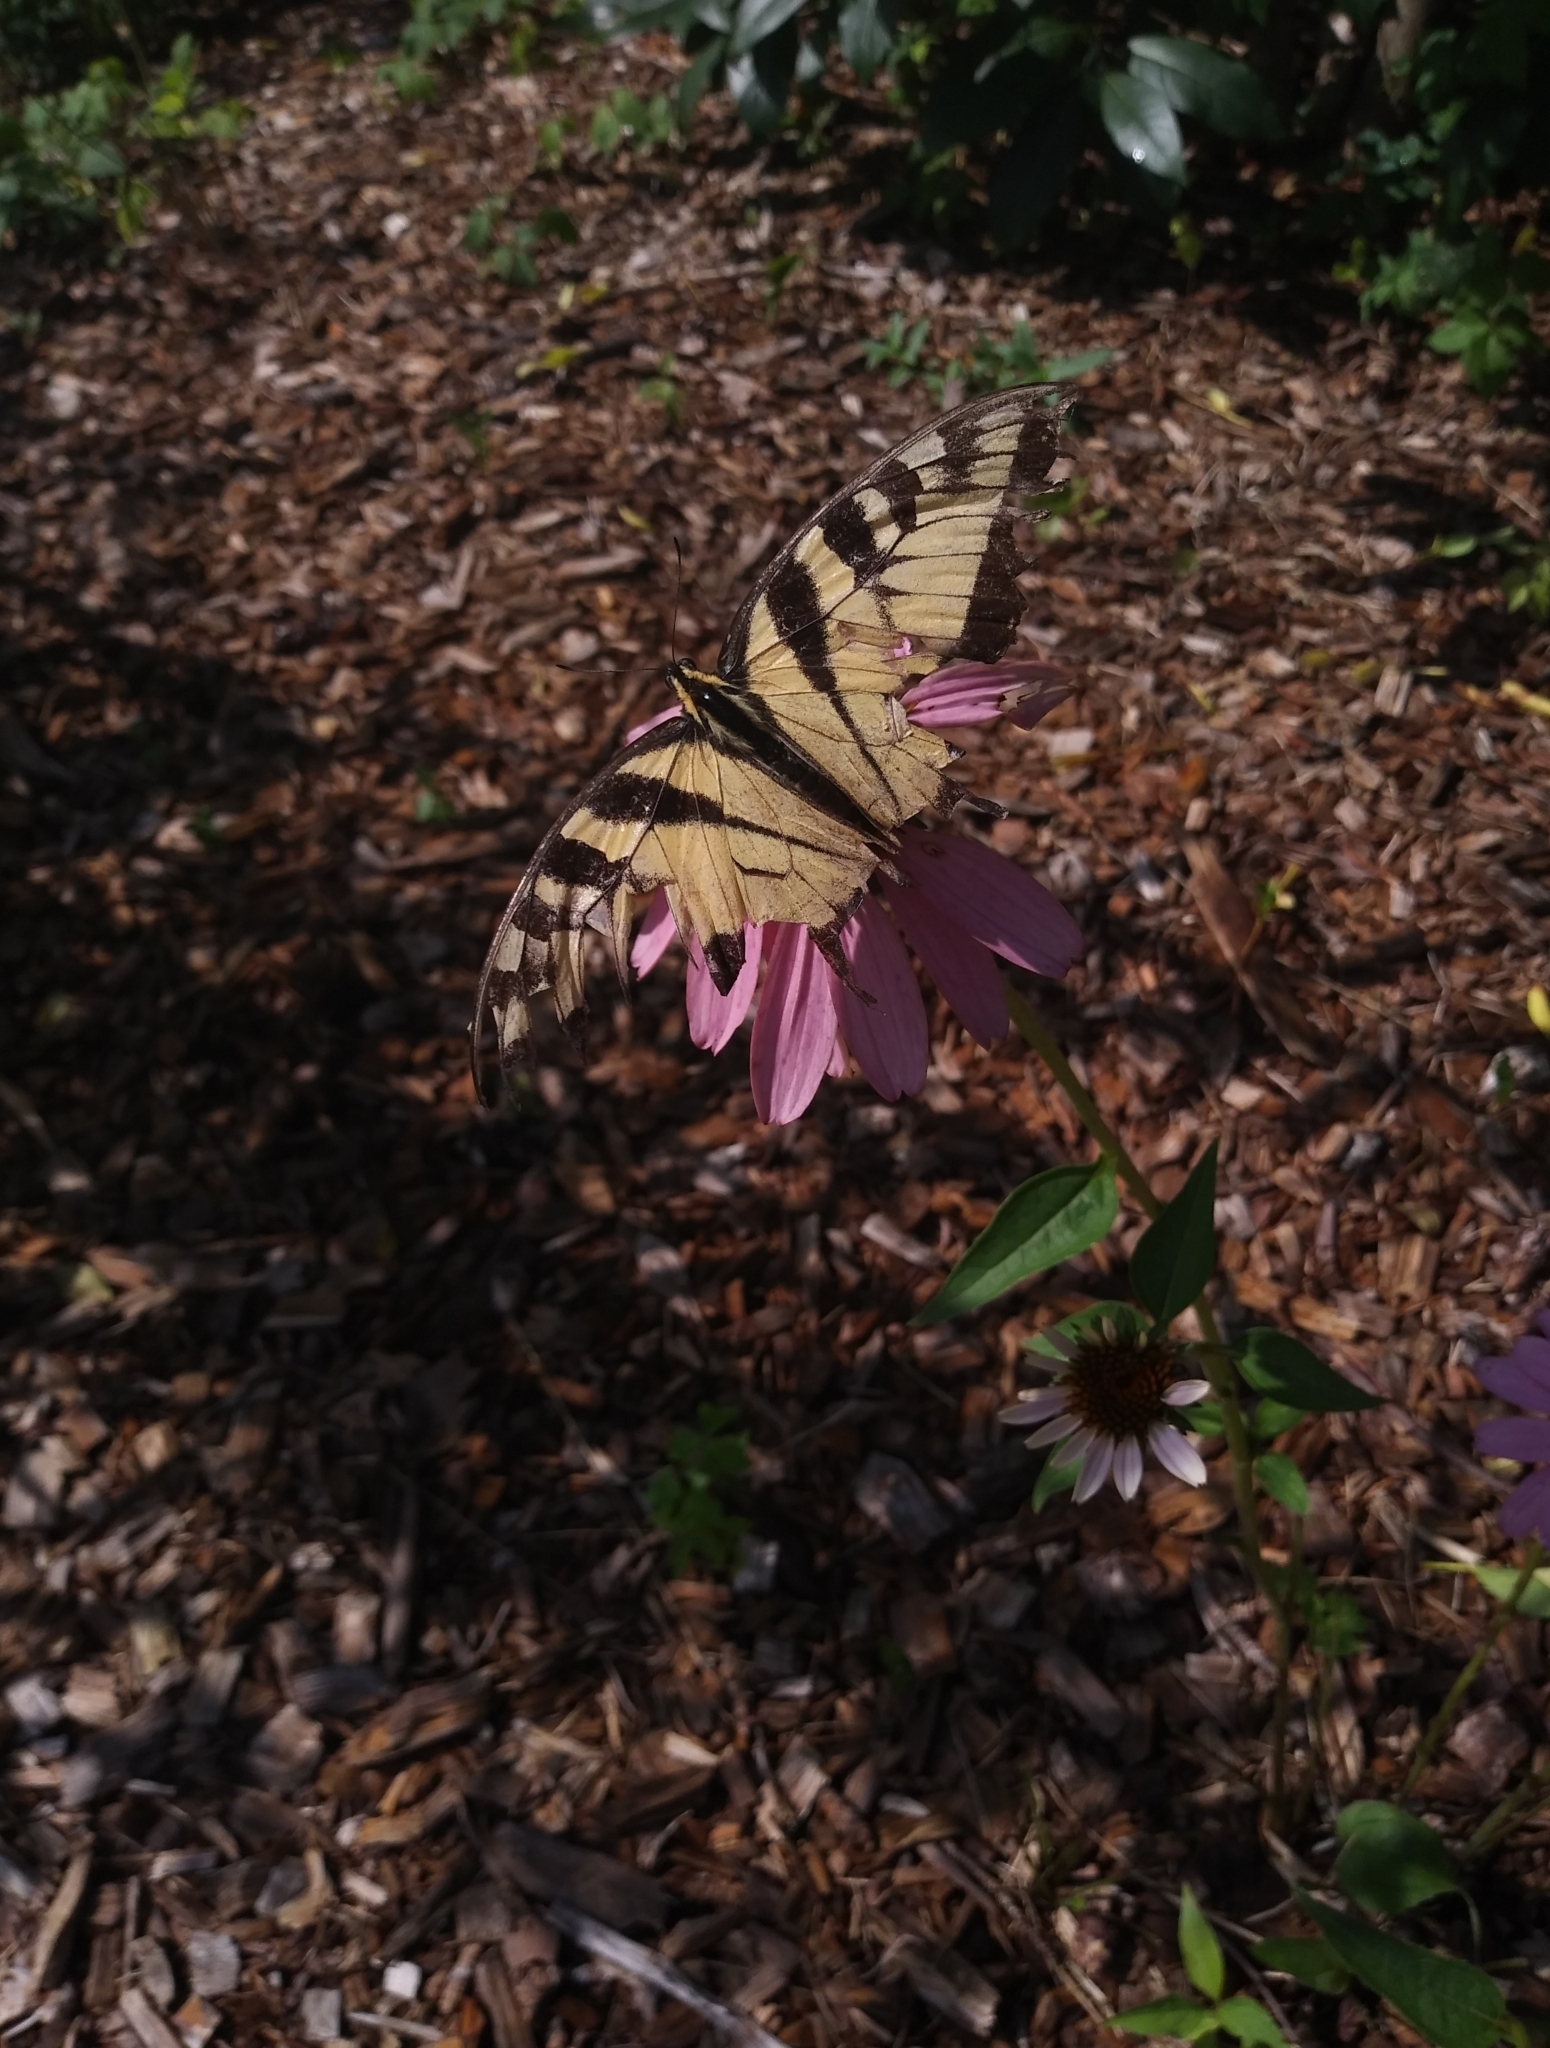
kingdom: Animalia
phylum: Arthropoda
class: Insecta
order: Lepidoptera
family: Papilionidae
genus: Papilio
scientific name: Papilio glaucus
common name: Tiger swallowtail
